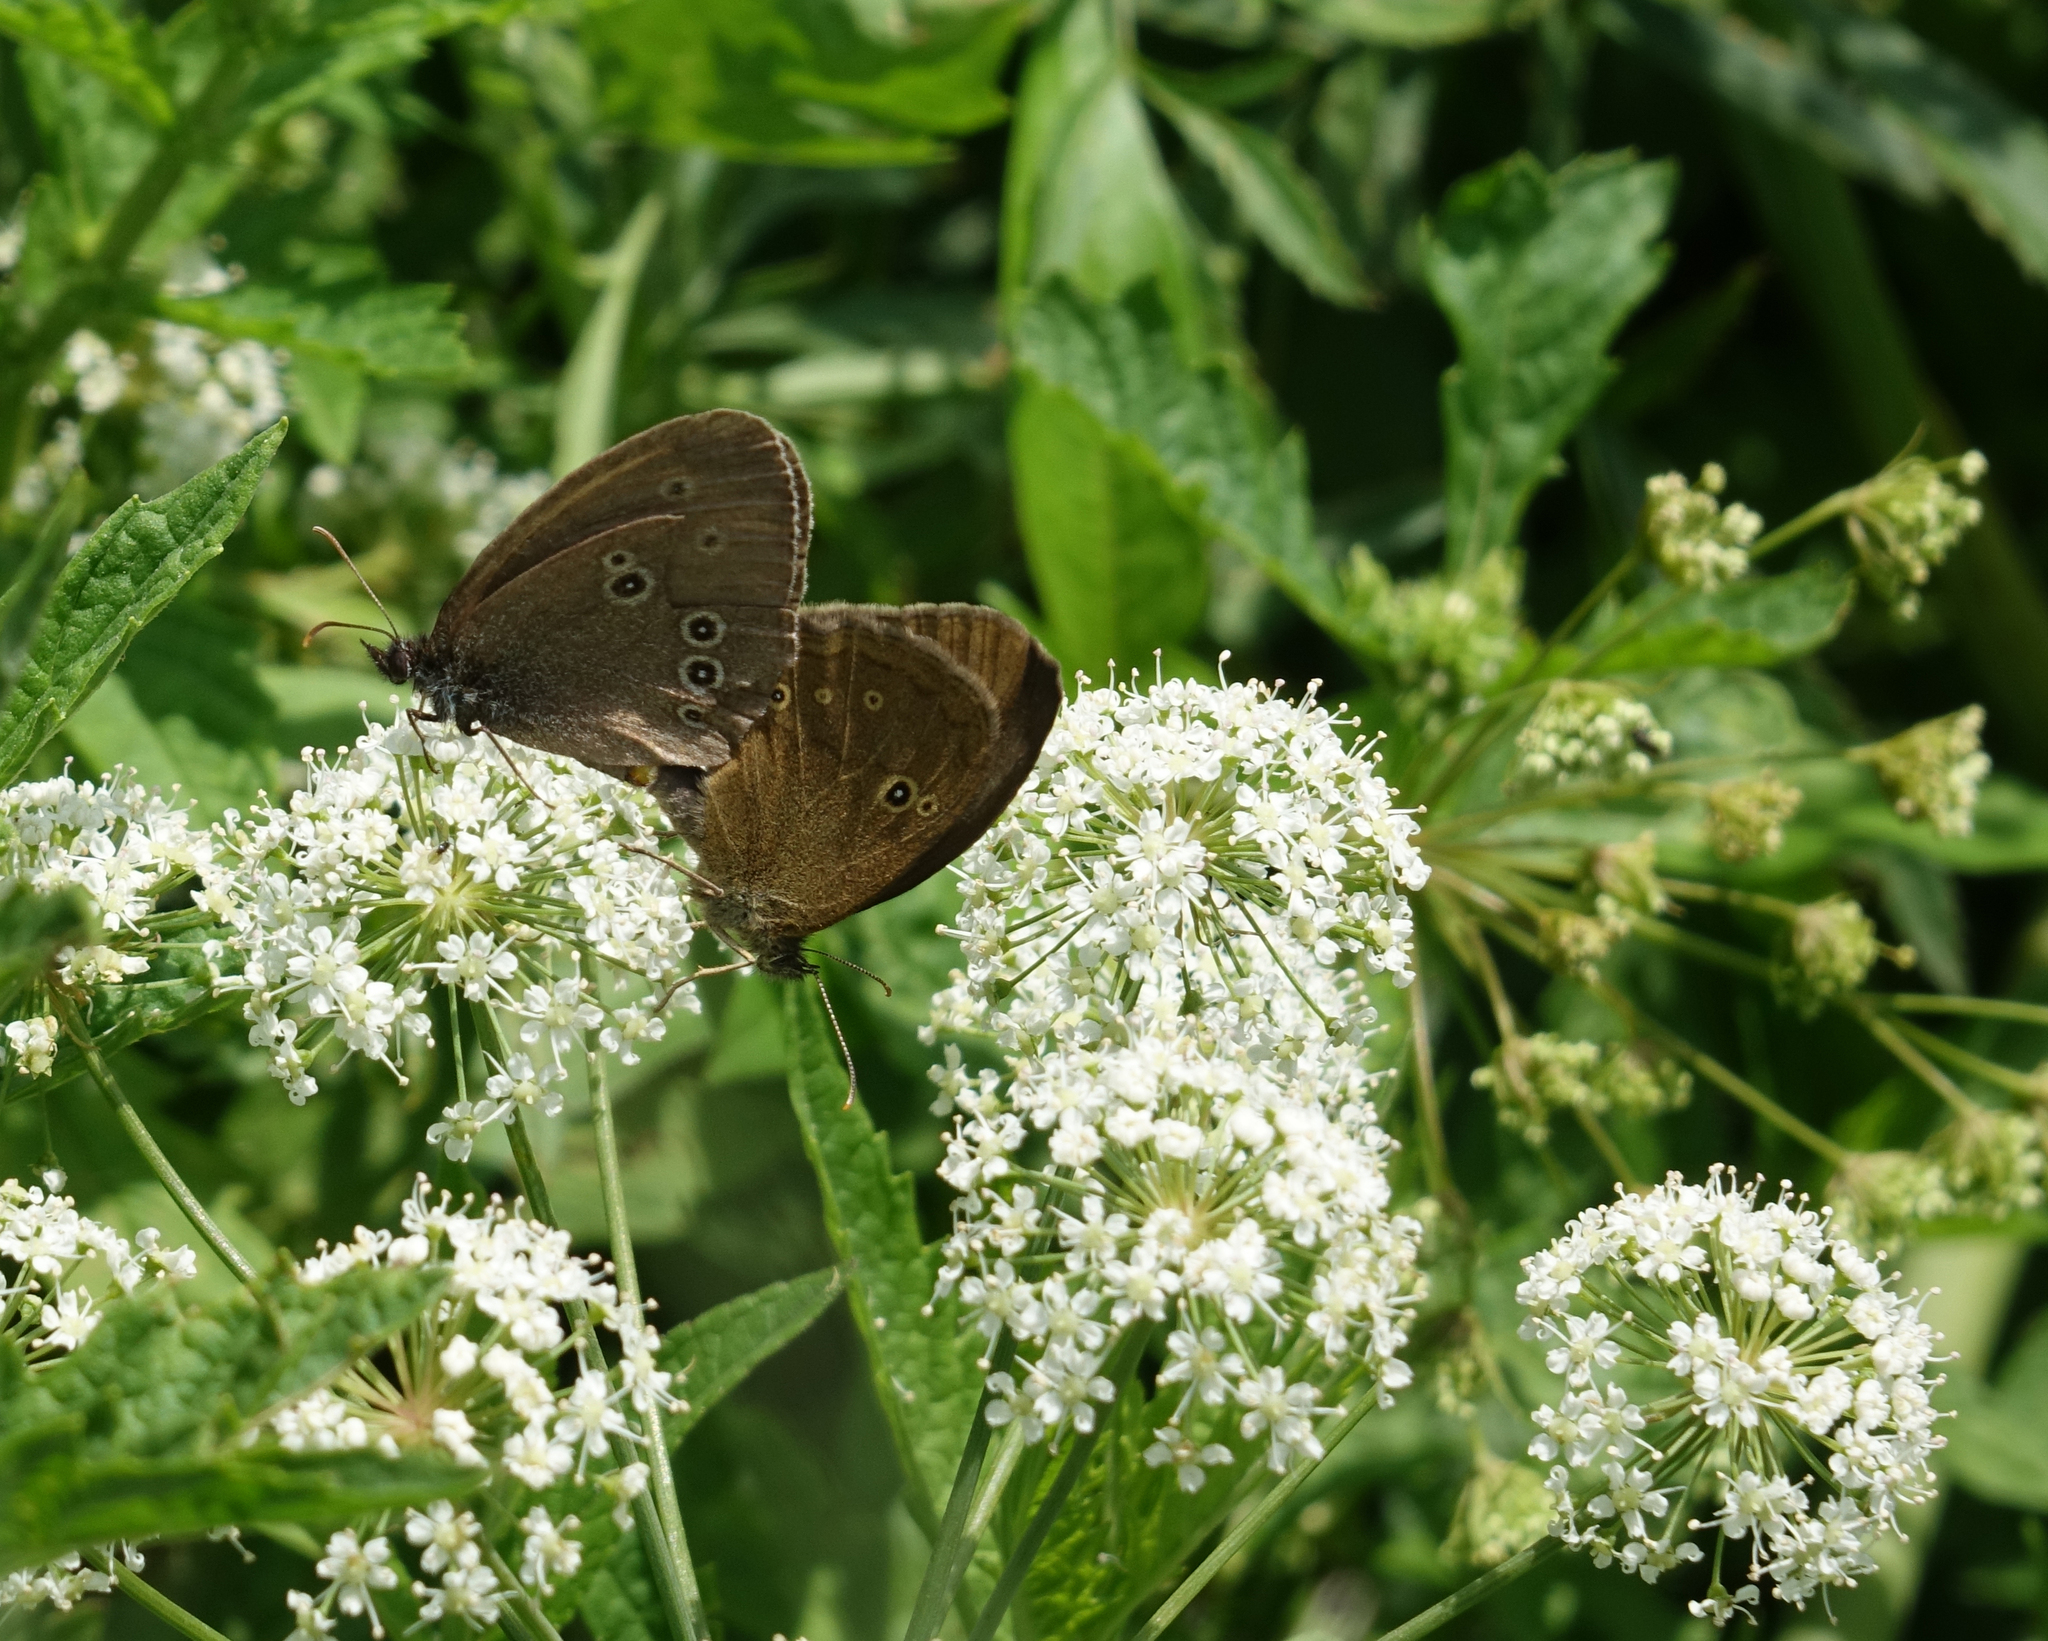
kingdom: Animalia
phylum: Arthropoda
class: Insecta
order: Lepidoptera
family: Nymphalidae
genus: Aphantopus
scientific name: Aphantopus hyperantus
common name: Ringlet
